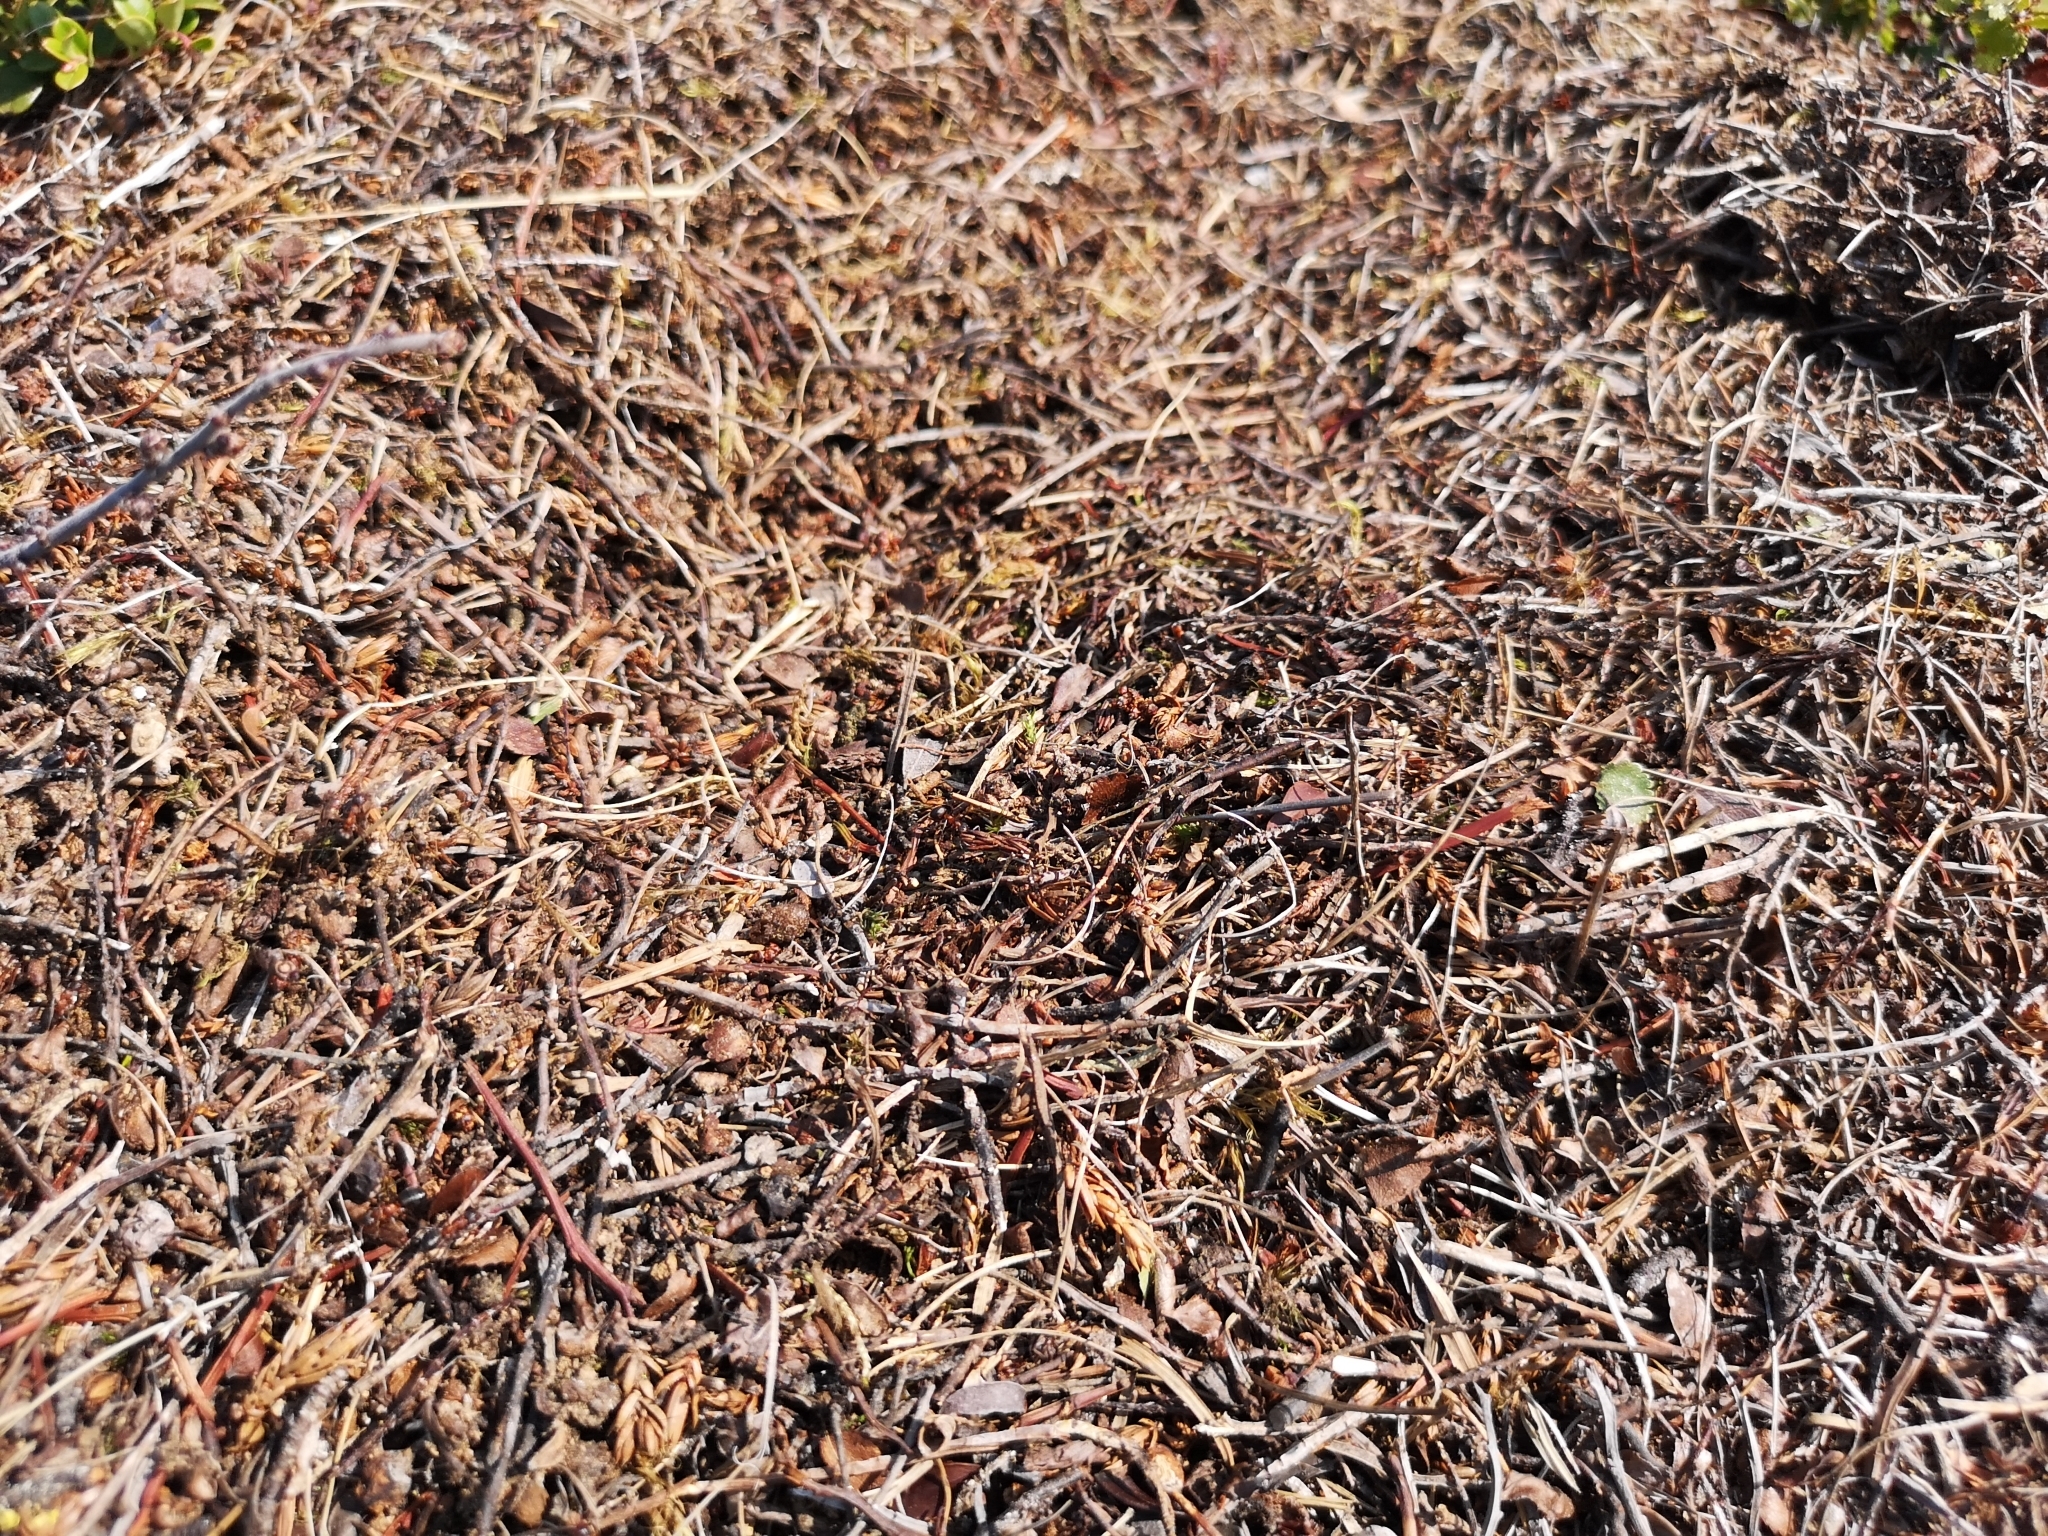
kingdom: Animalia
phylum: Arthropoda
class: Insecta
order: Hymenoptera
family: Formicidae
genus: Formica
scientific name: Formica rufa
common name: Red wood ant
